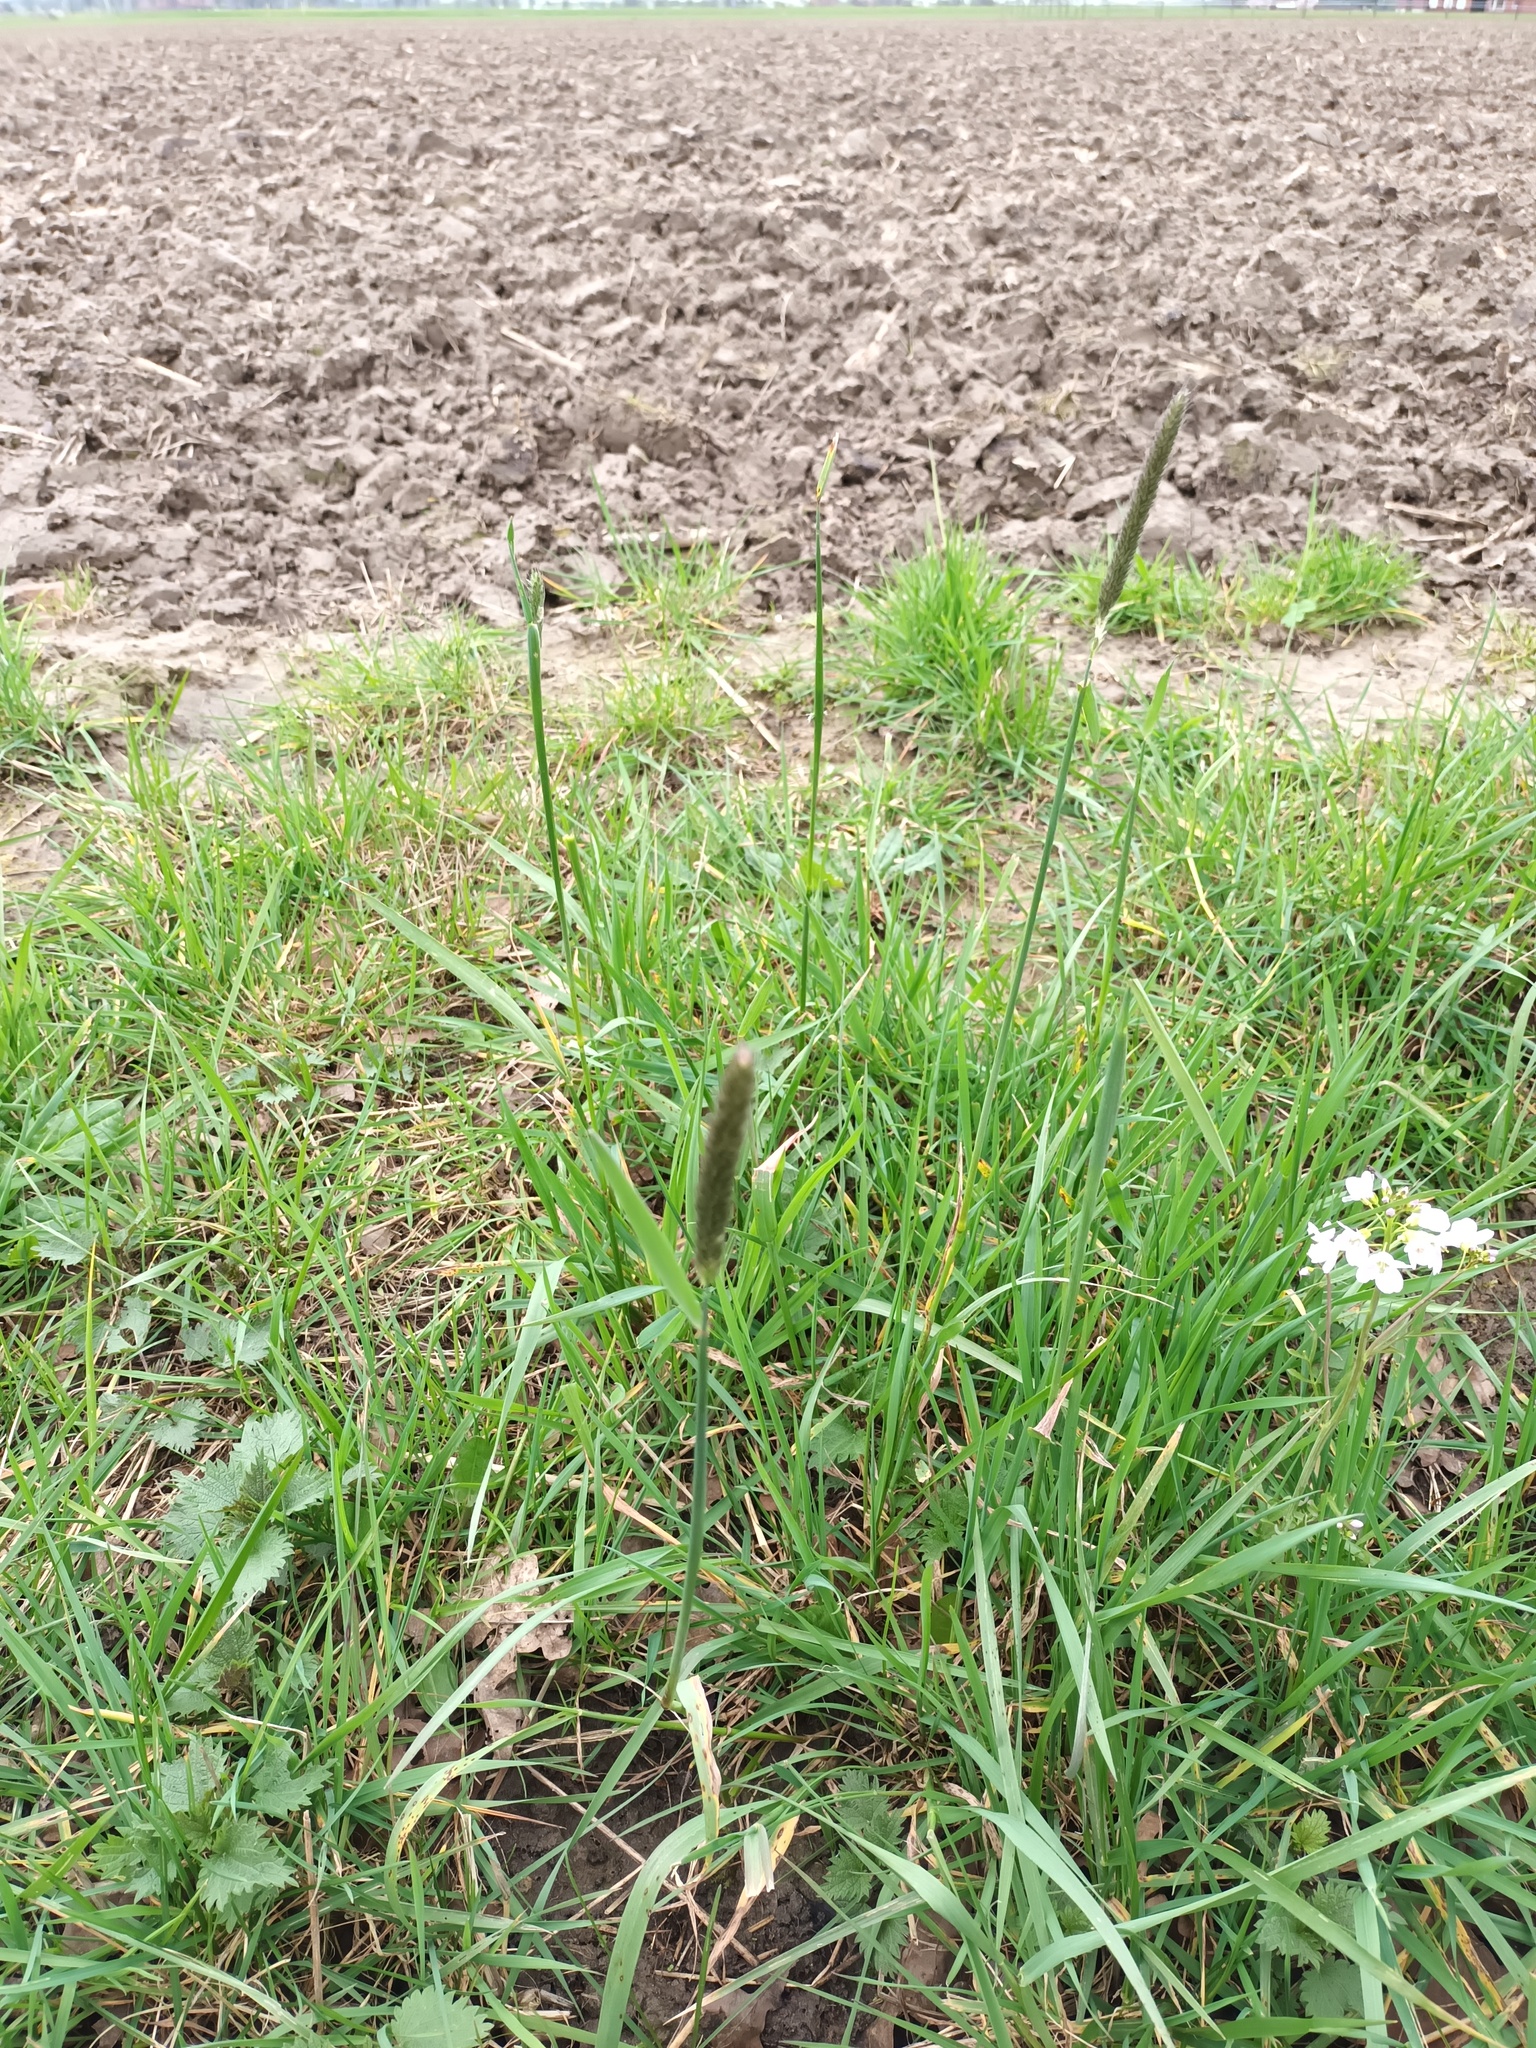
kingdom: Plantae
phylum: Tracheophyta
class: Liliopsida
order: Poales
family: Poaceae
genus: Alopecurus
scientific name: Alopecurus pratensis
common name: Meadow foxtail
